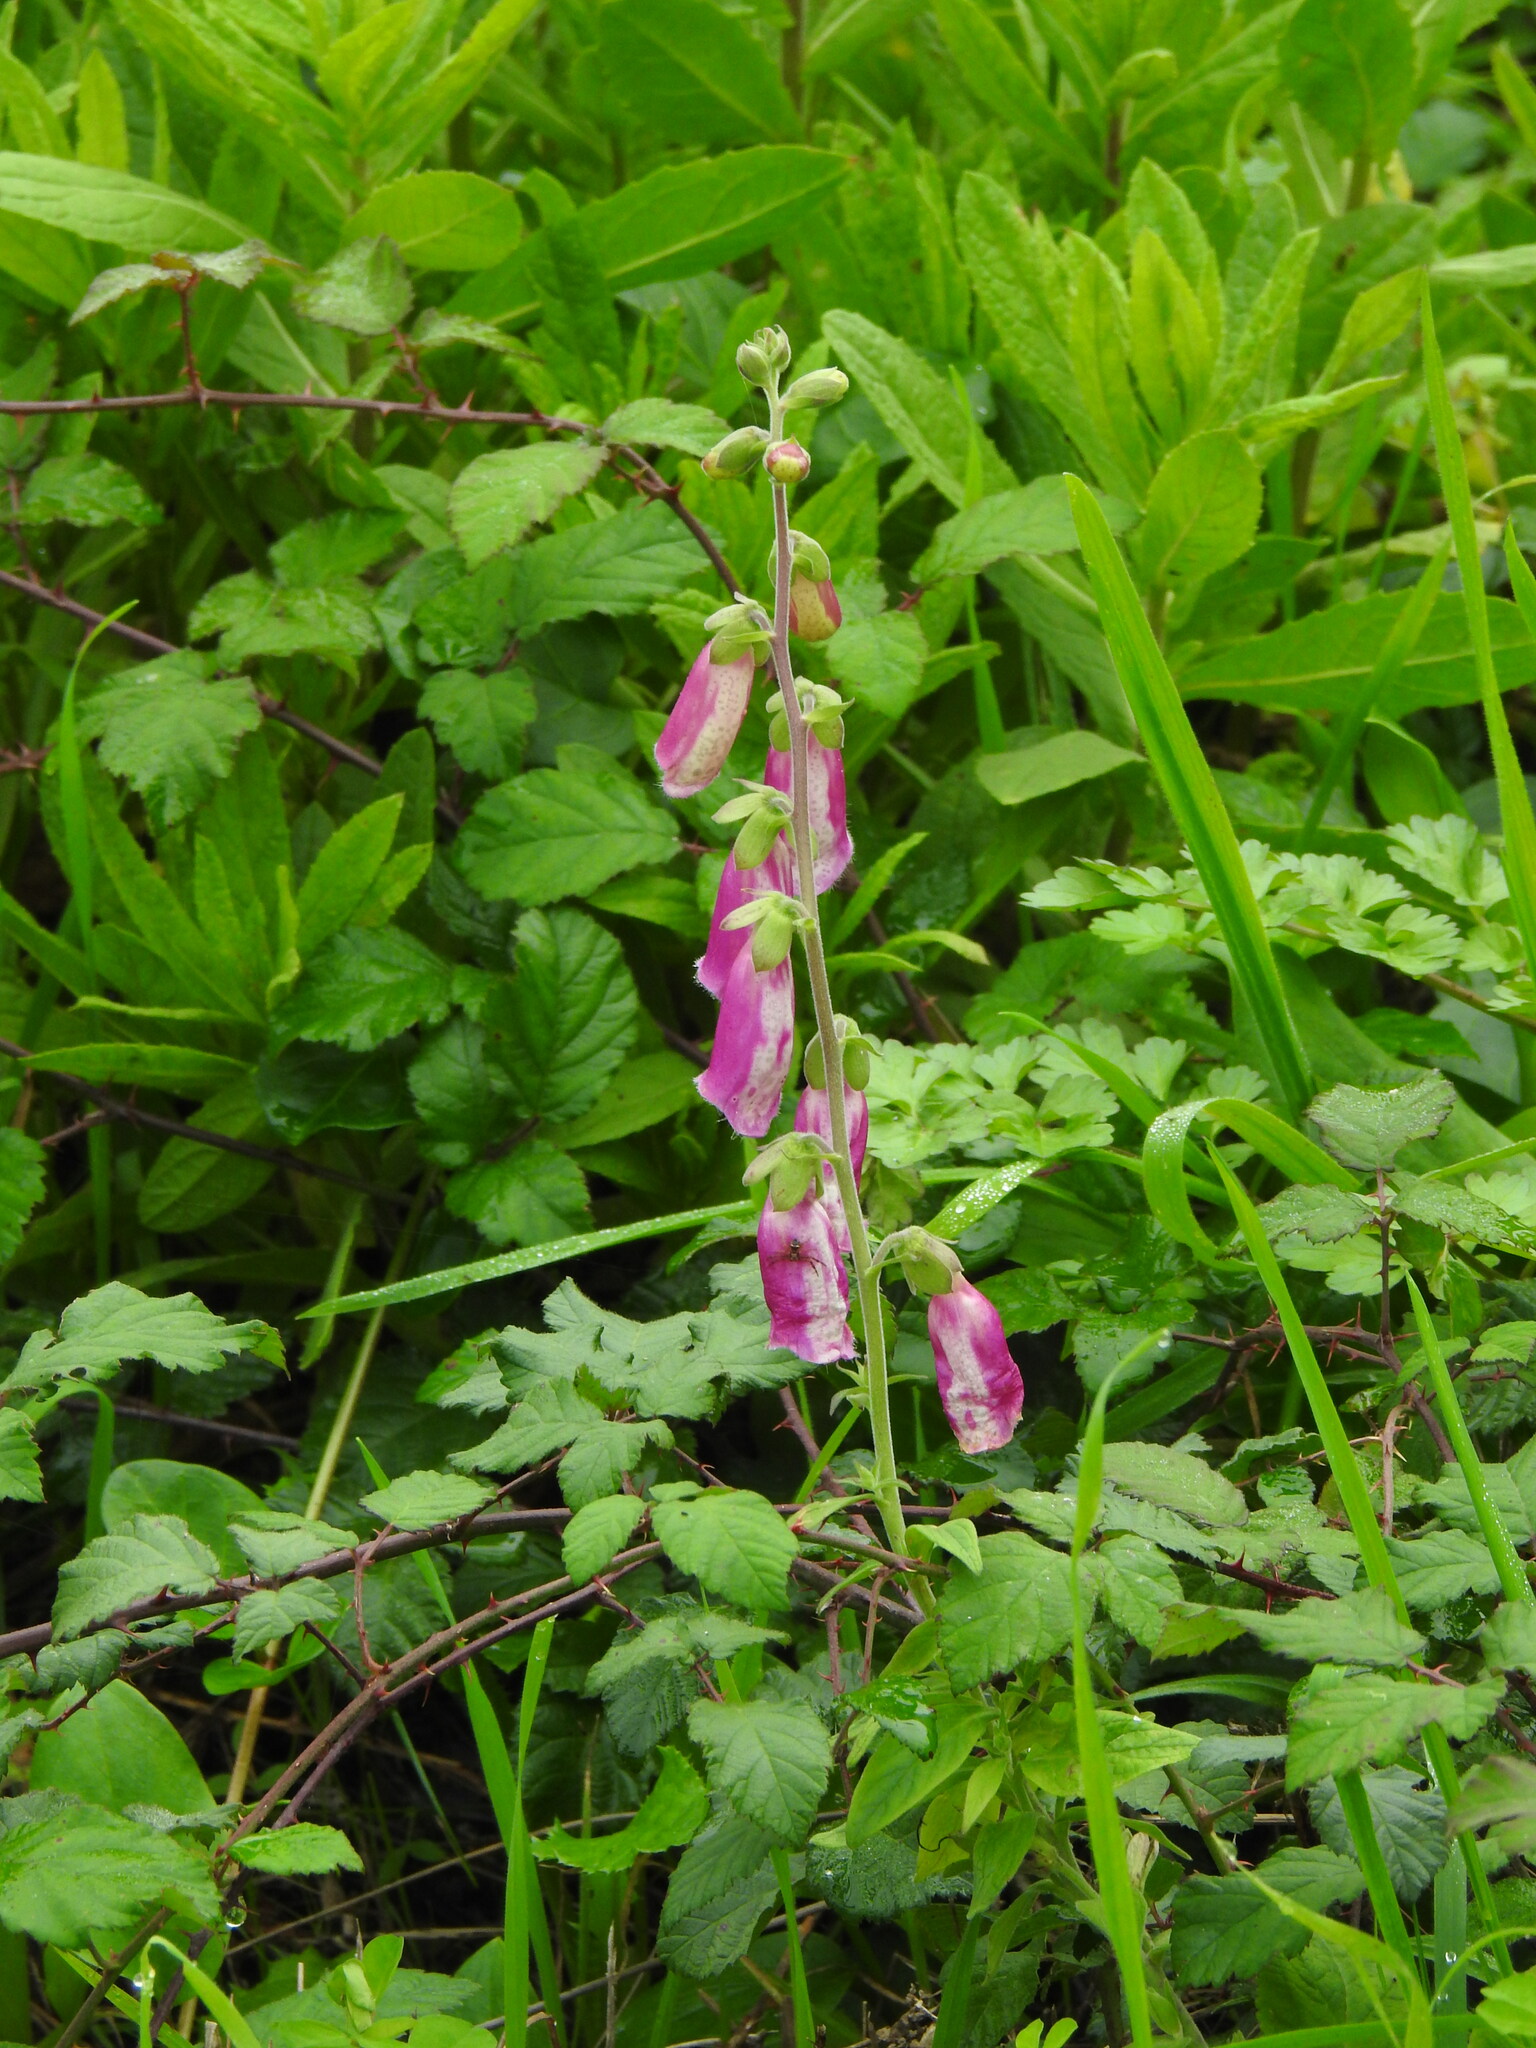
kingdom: Plantae
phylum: Tracheophyta
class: Magnoliopsida
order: Lamiales
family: Plantaginaceae
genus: Digitalis
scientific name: Digitalis purpurea
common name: Foxglove
